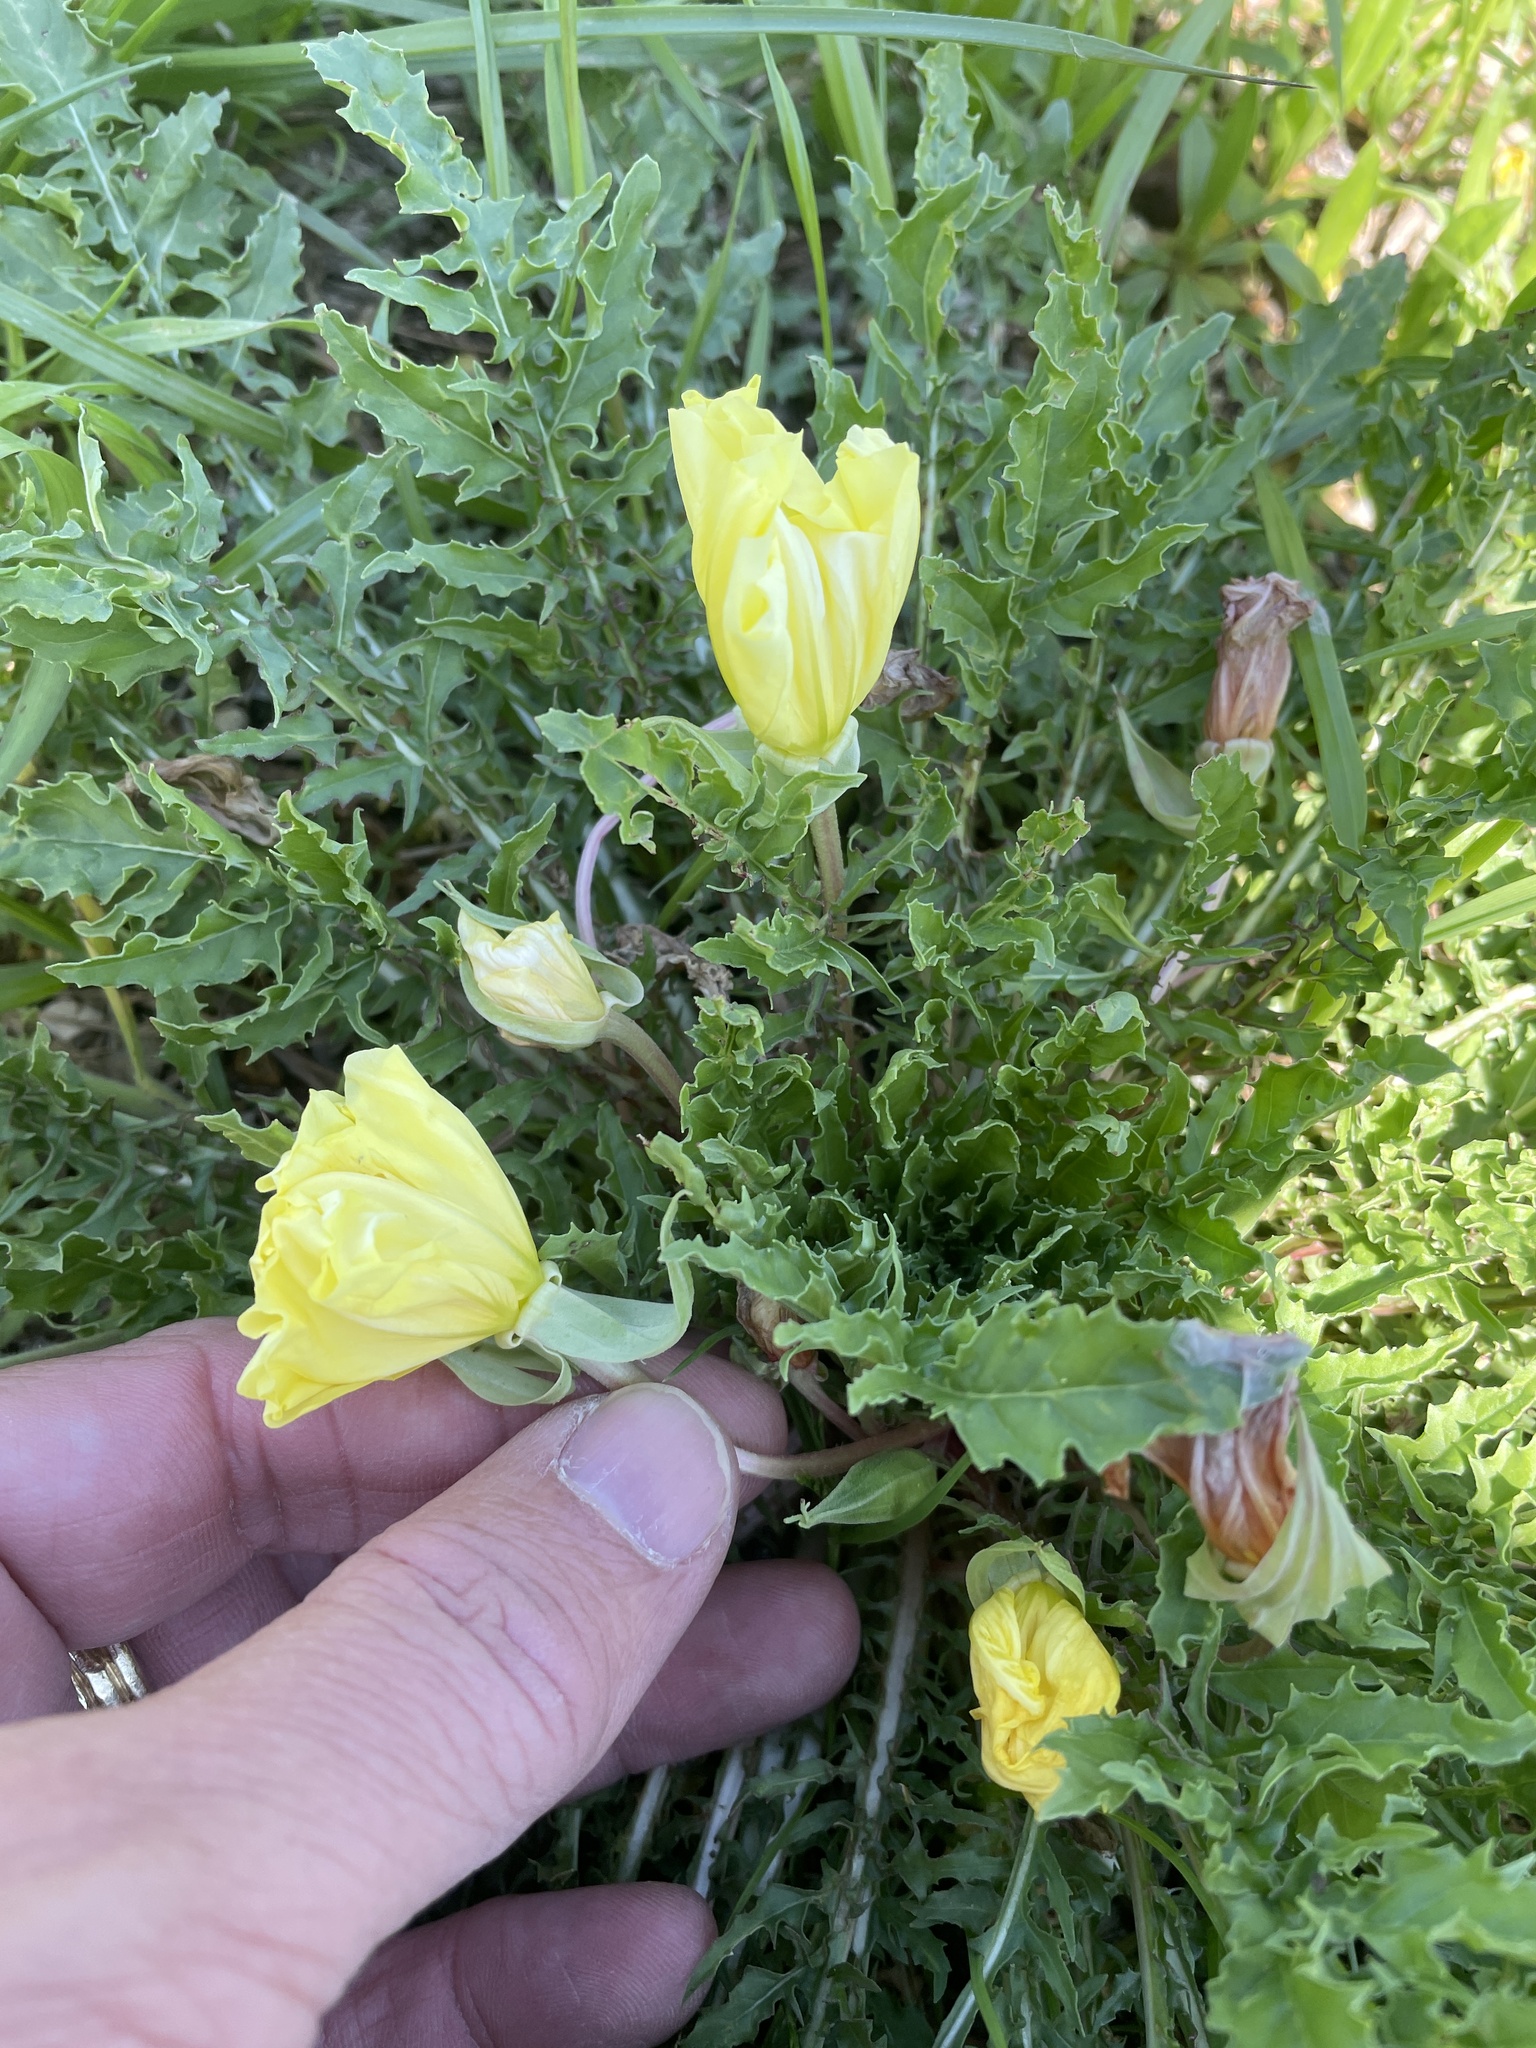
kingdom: Plantae
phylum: Tracheophyta
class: Magnoliopsida
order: Myrtales
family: Onagraceae
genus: Oenothera
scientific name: Oenothera triloba
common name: Sessile evening-primrose
